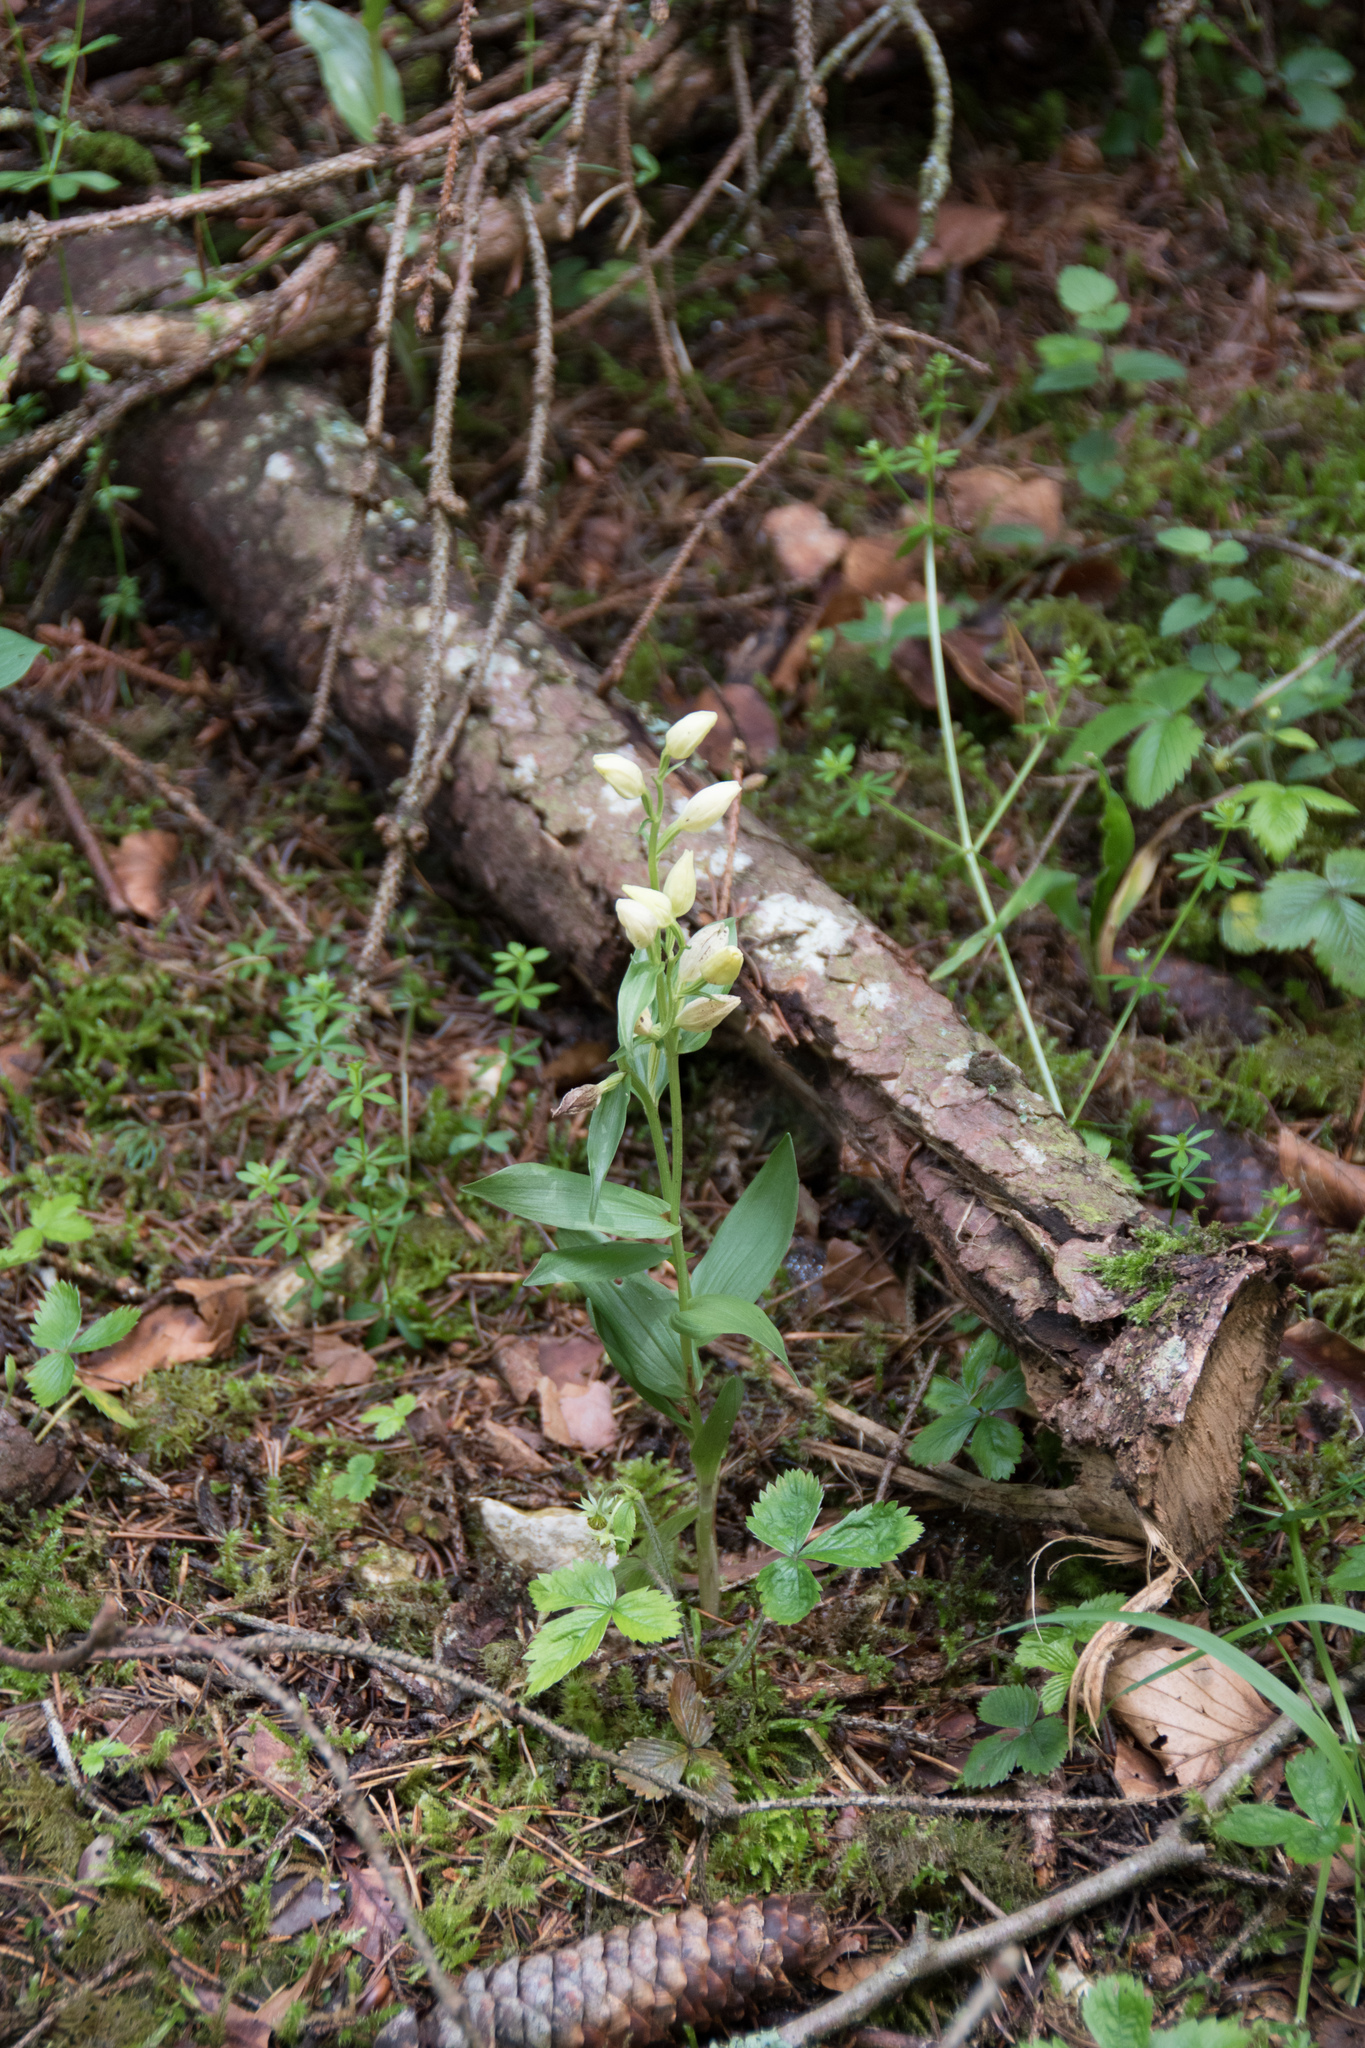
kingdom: Plantae
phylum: Tracheophyta
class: Liliopsida
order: Asparagales
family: Orchidaceae
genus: Cephalanthera
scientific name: Cephalanthera damasonium
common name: White helleborine
